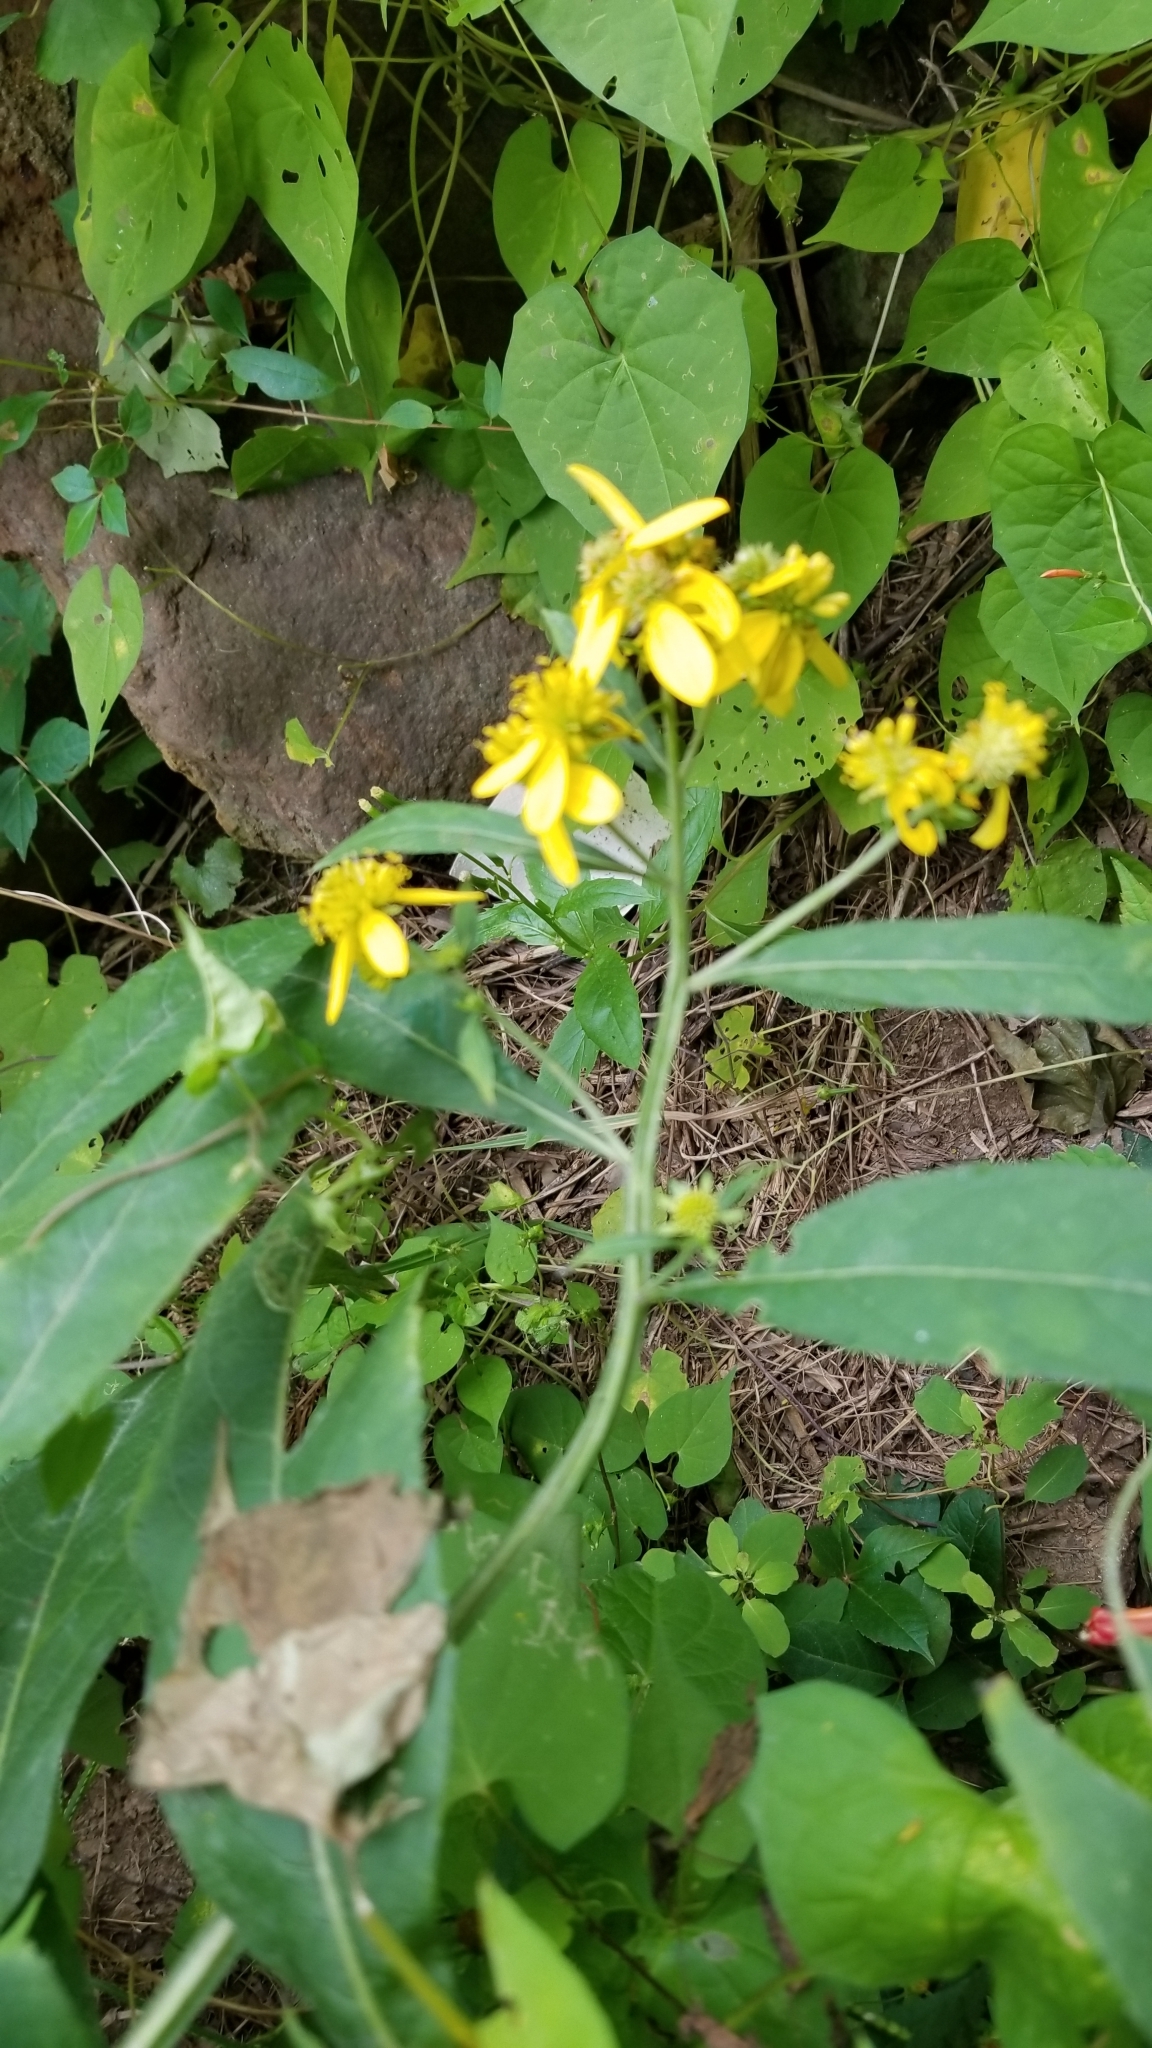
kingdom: Plantae
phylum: Tracheophyta
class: Magnoliopsida
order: Asterales
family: Asteraceae
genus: Verbesina
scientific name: Verbesina alternifolia
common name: Wingstem
